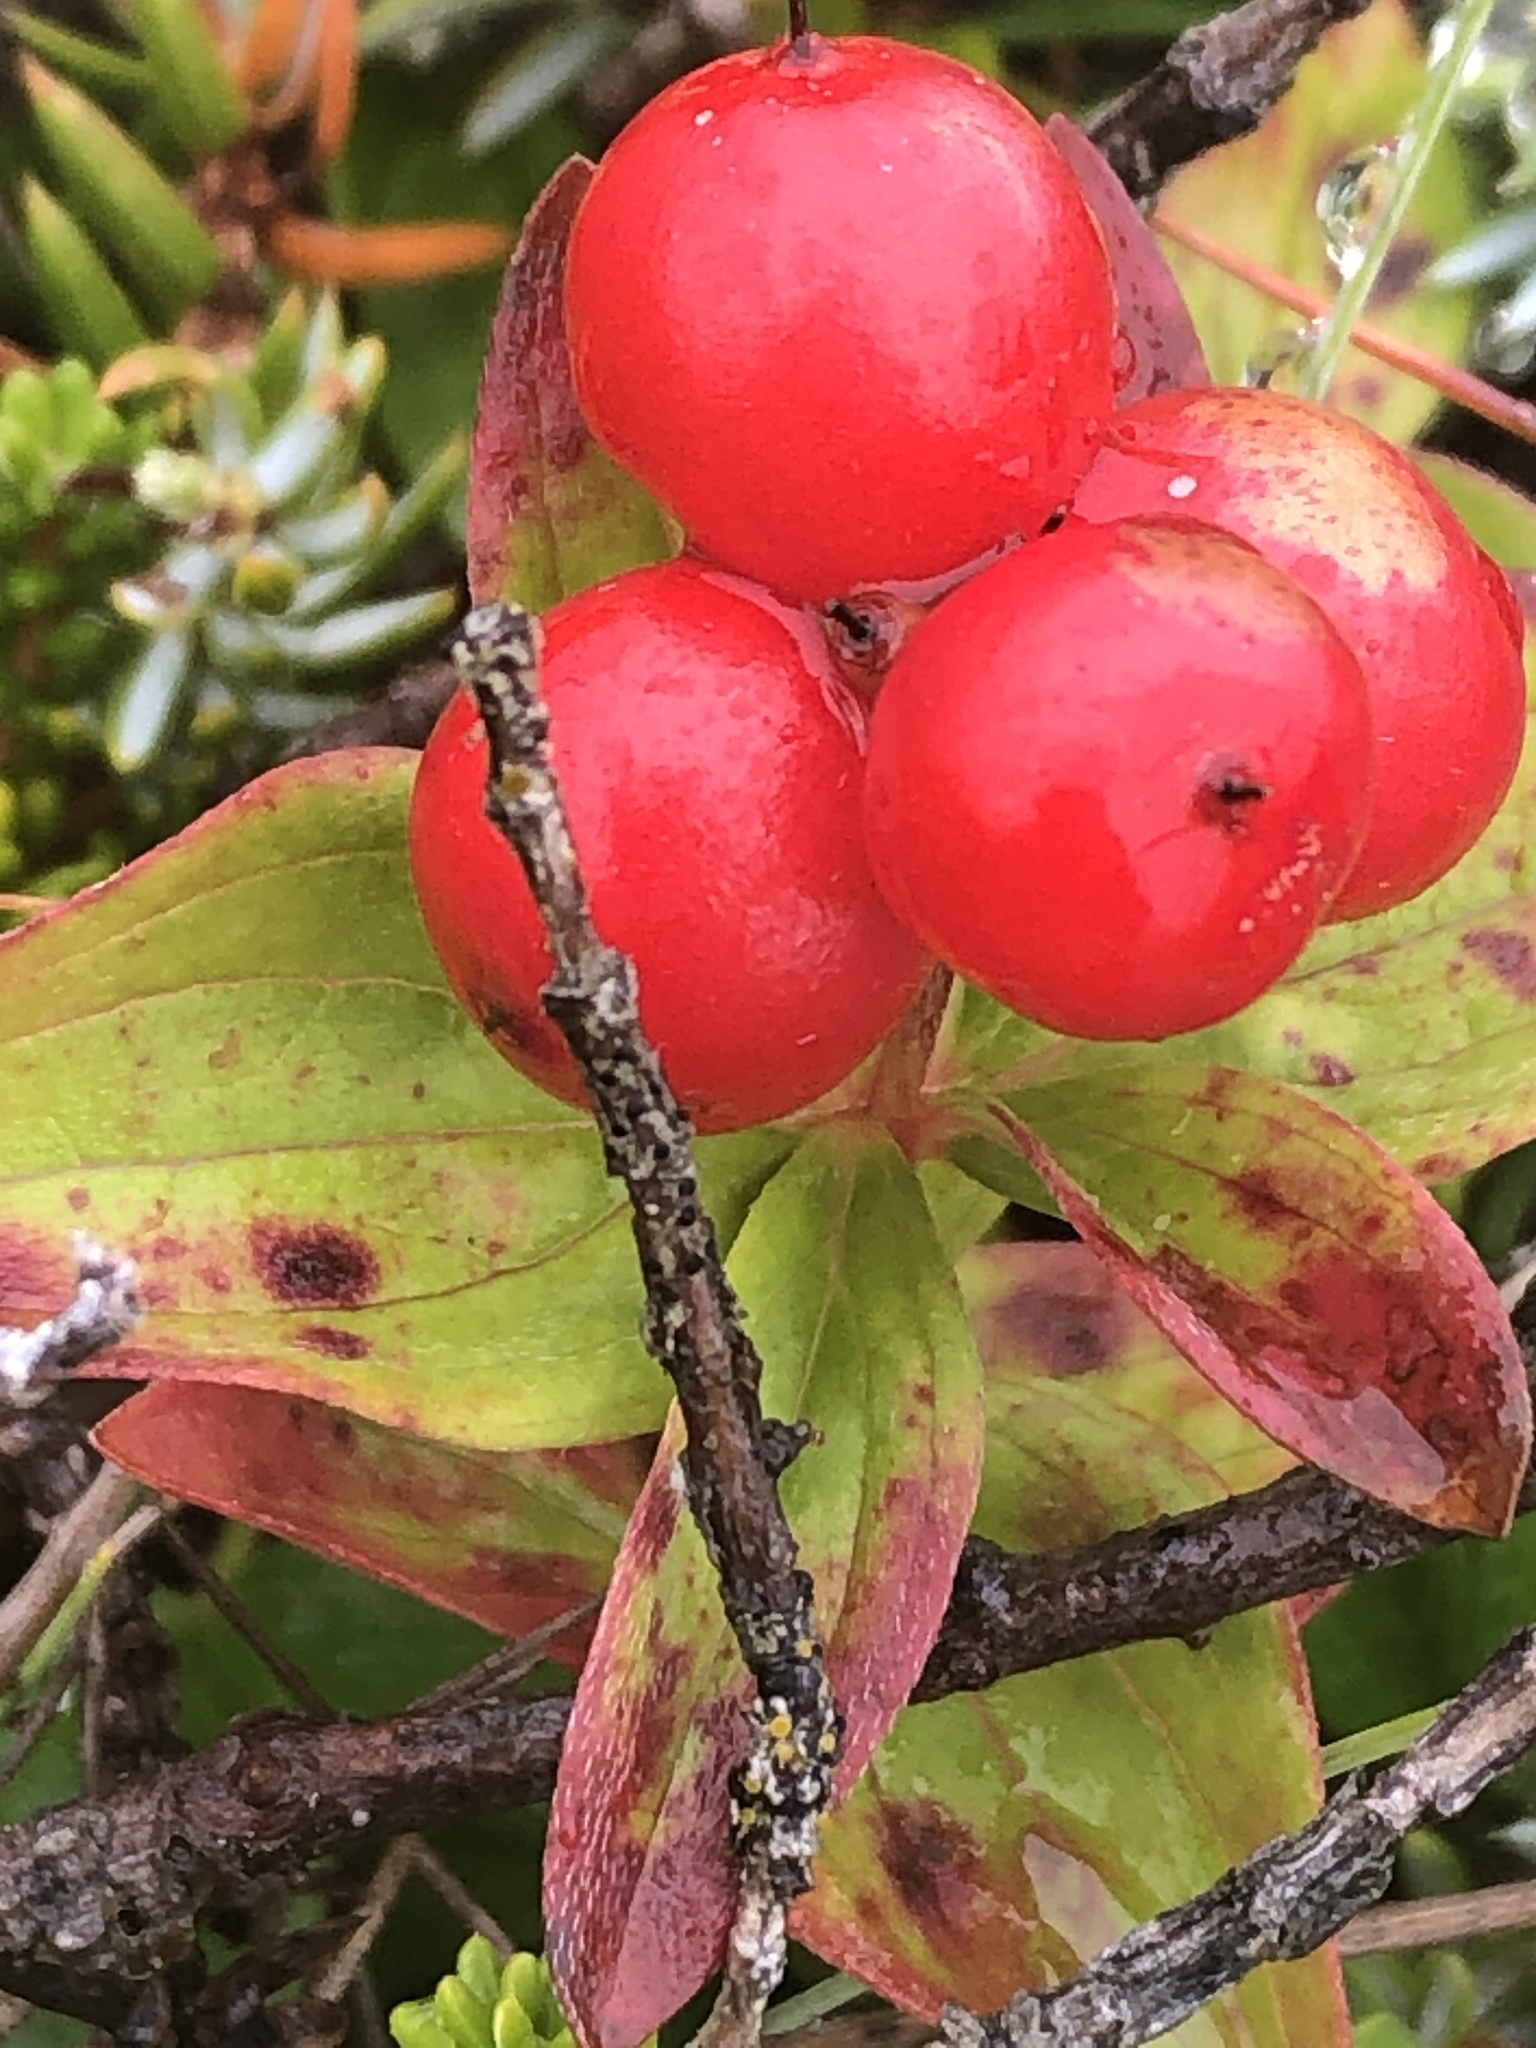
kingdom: Plantae
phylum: Tracheophyta
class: Magnoliopsida
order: Cornales
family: Cornaceae
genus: Cornus
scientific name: Cornus suecica
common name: Dwarf cornel
